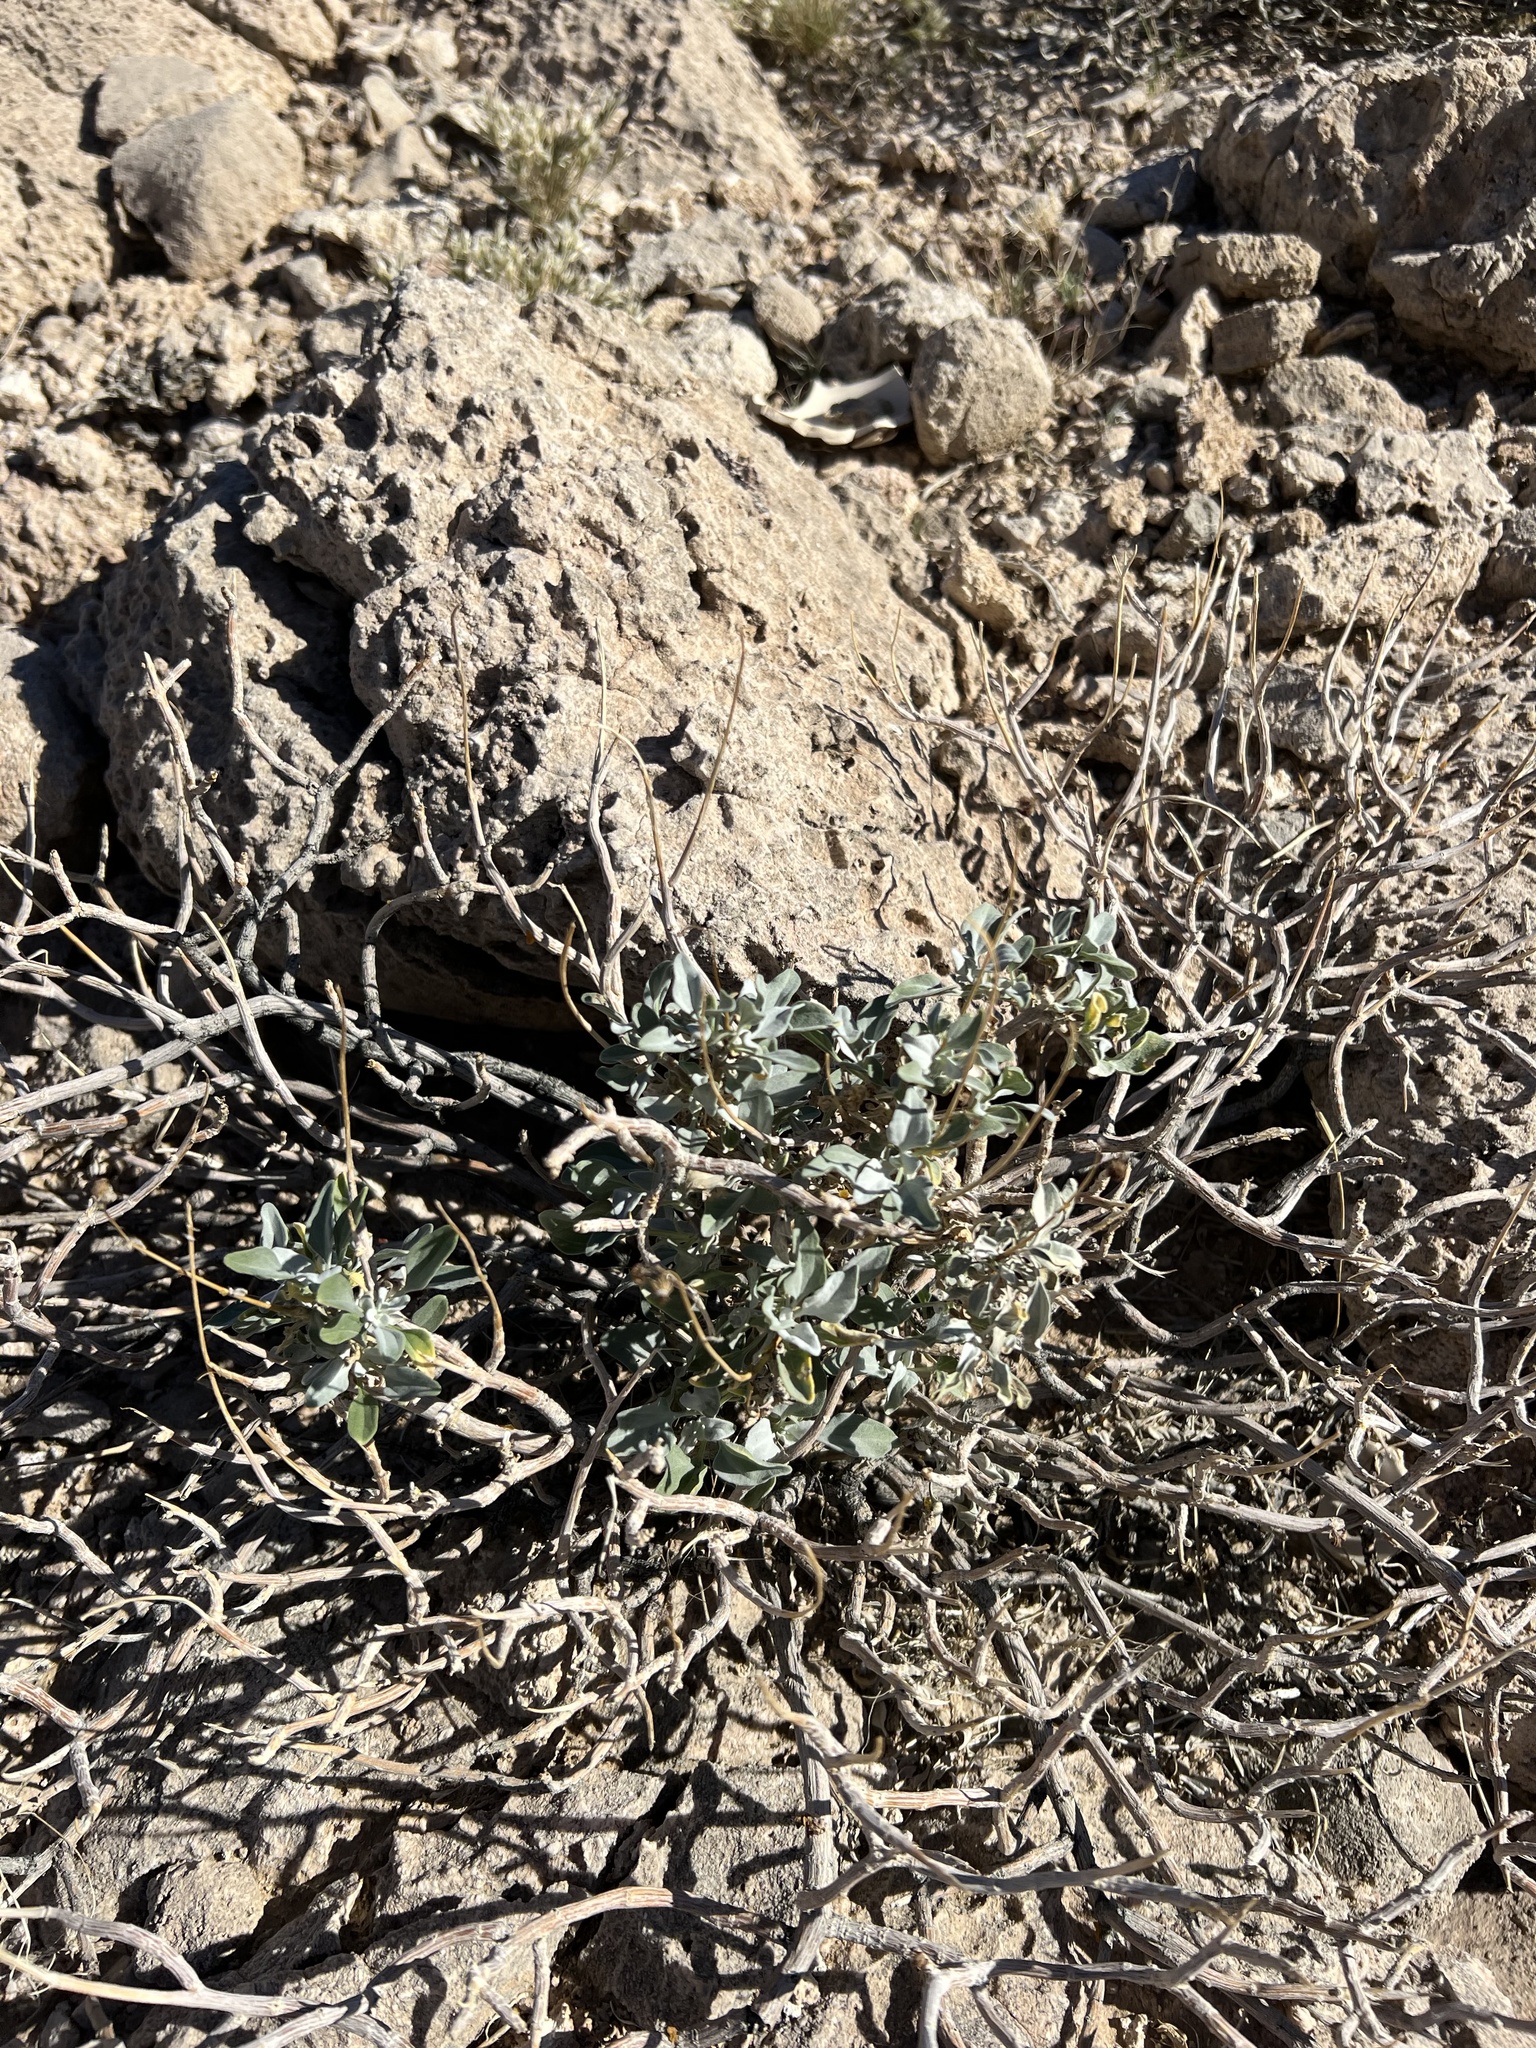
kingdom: Plantae
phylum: Tracheophyta
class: Magnoliopsida
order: Asterales
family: Asteraceae
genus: Encelia
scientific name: Encelia farinosa
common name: Brittlebush
